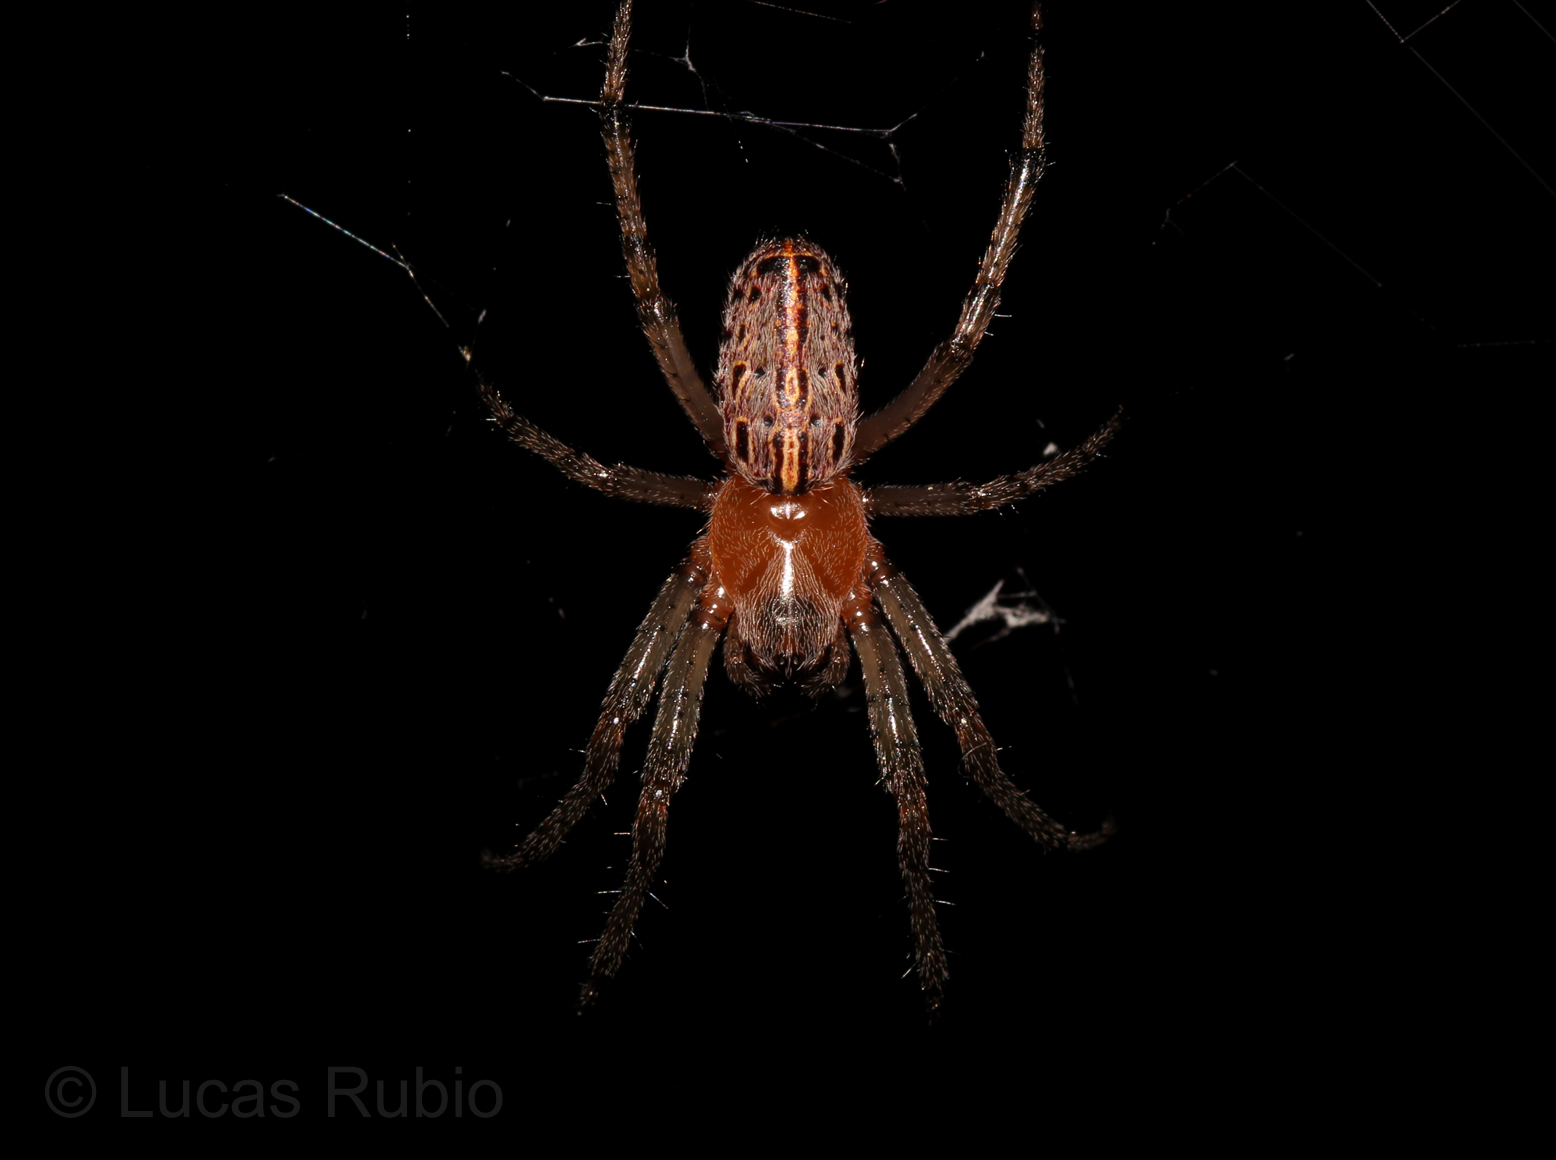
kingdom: Animalia
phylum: Arthropoda
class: Arachnida
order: Araneae
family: Araneidae
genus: Alpaida
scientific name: Alpaida veniliae
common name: Orb weavers
